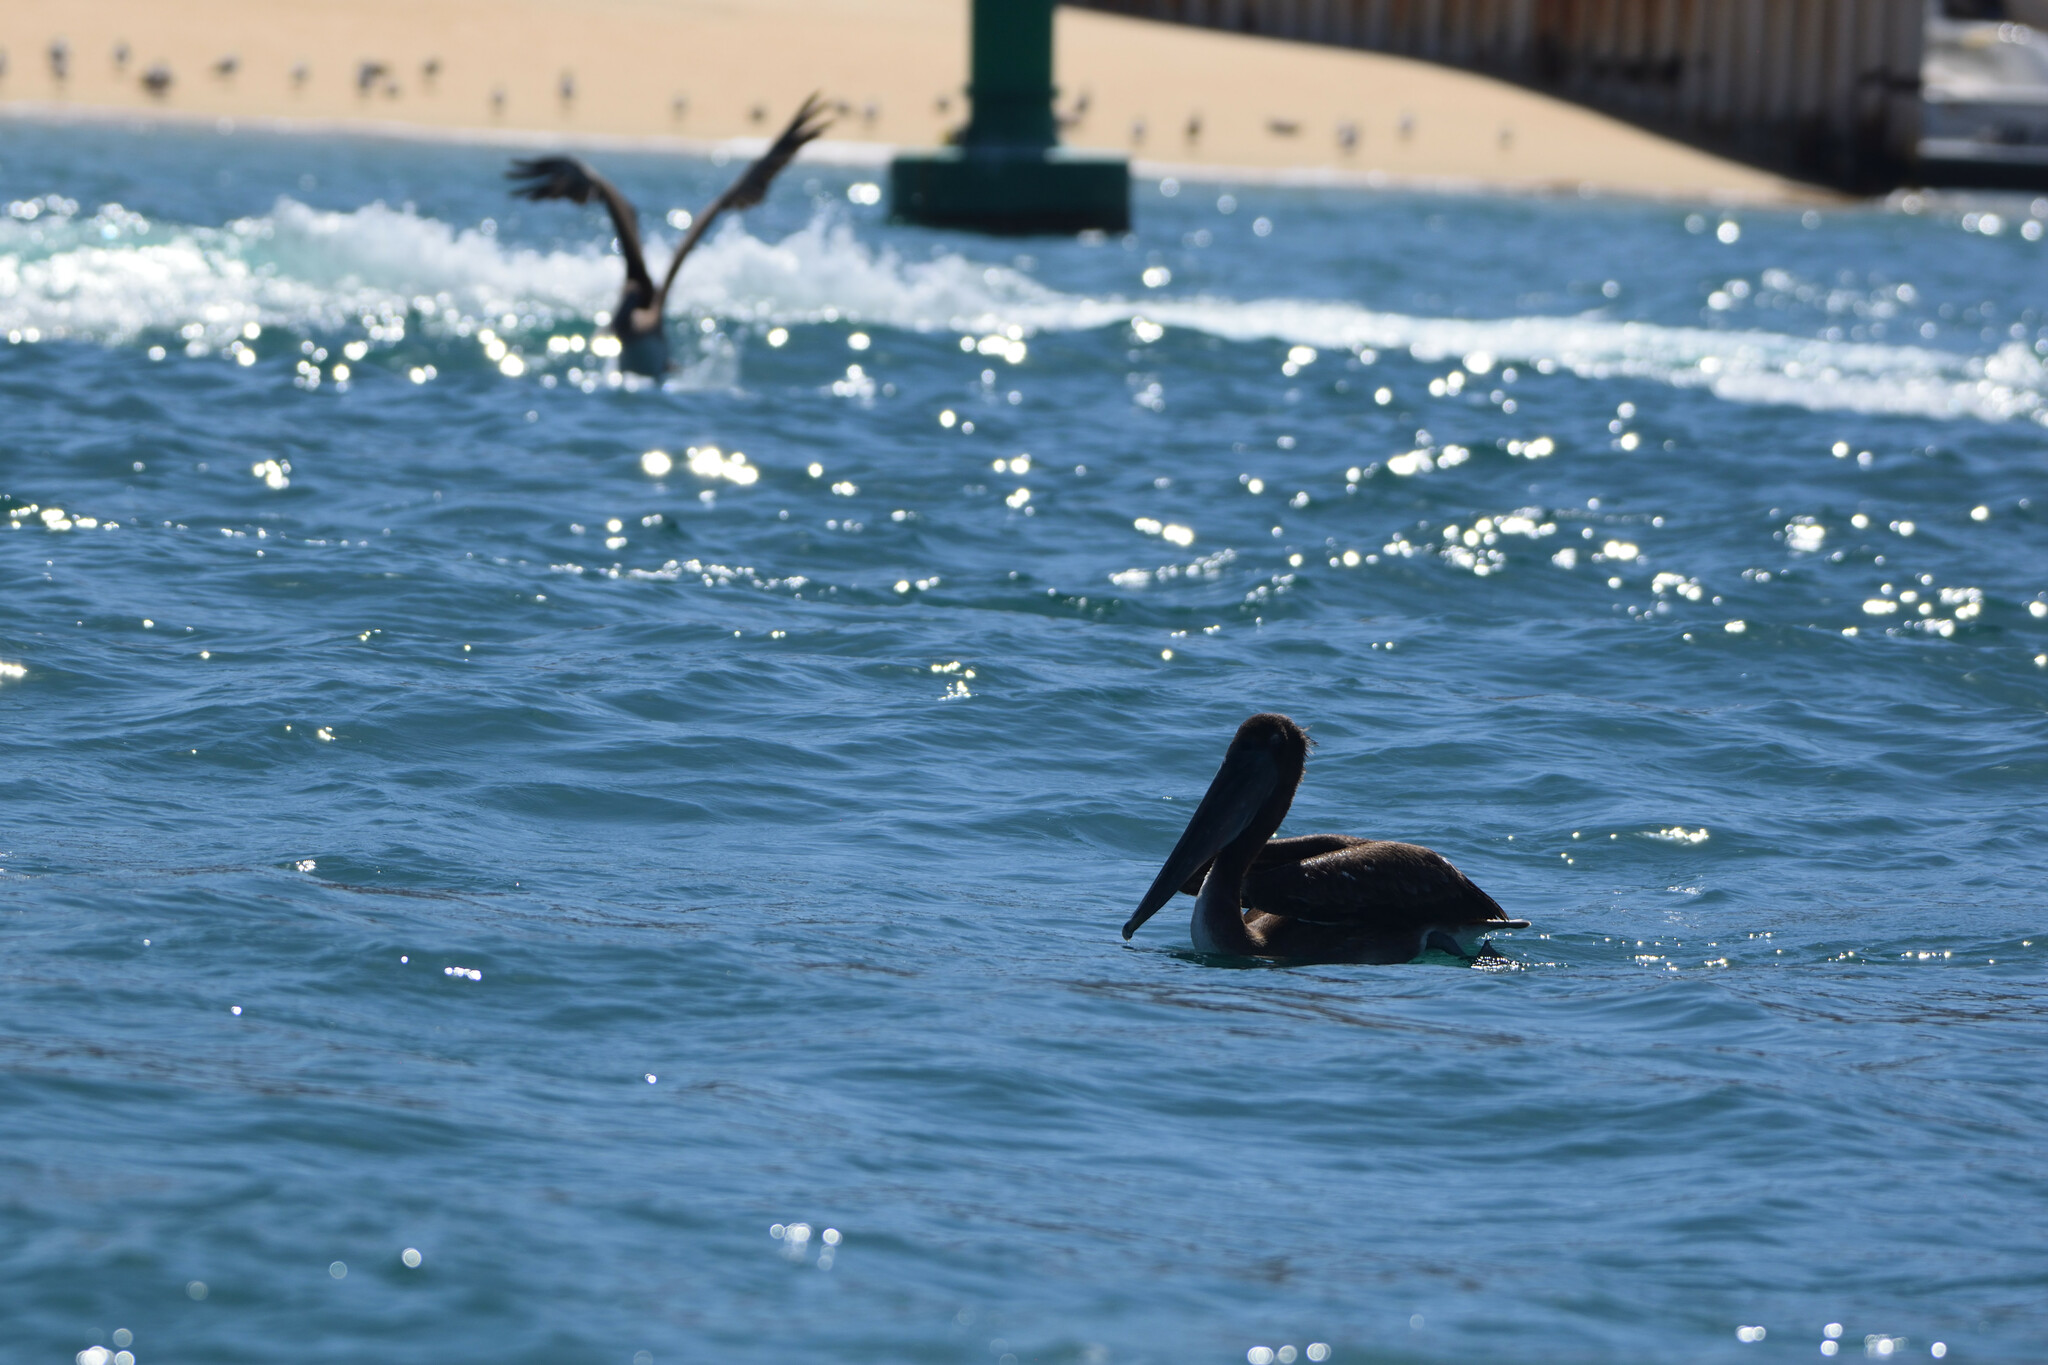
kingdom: Animalia
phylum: Chordata
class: Aves
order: Pelecaniformes
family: Pelecanidae
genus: Pelecanus
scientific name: Pelecanus occidentalis
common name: Brown pelican
